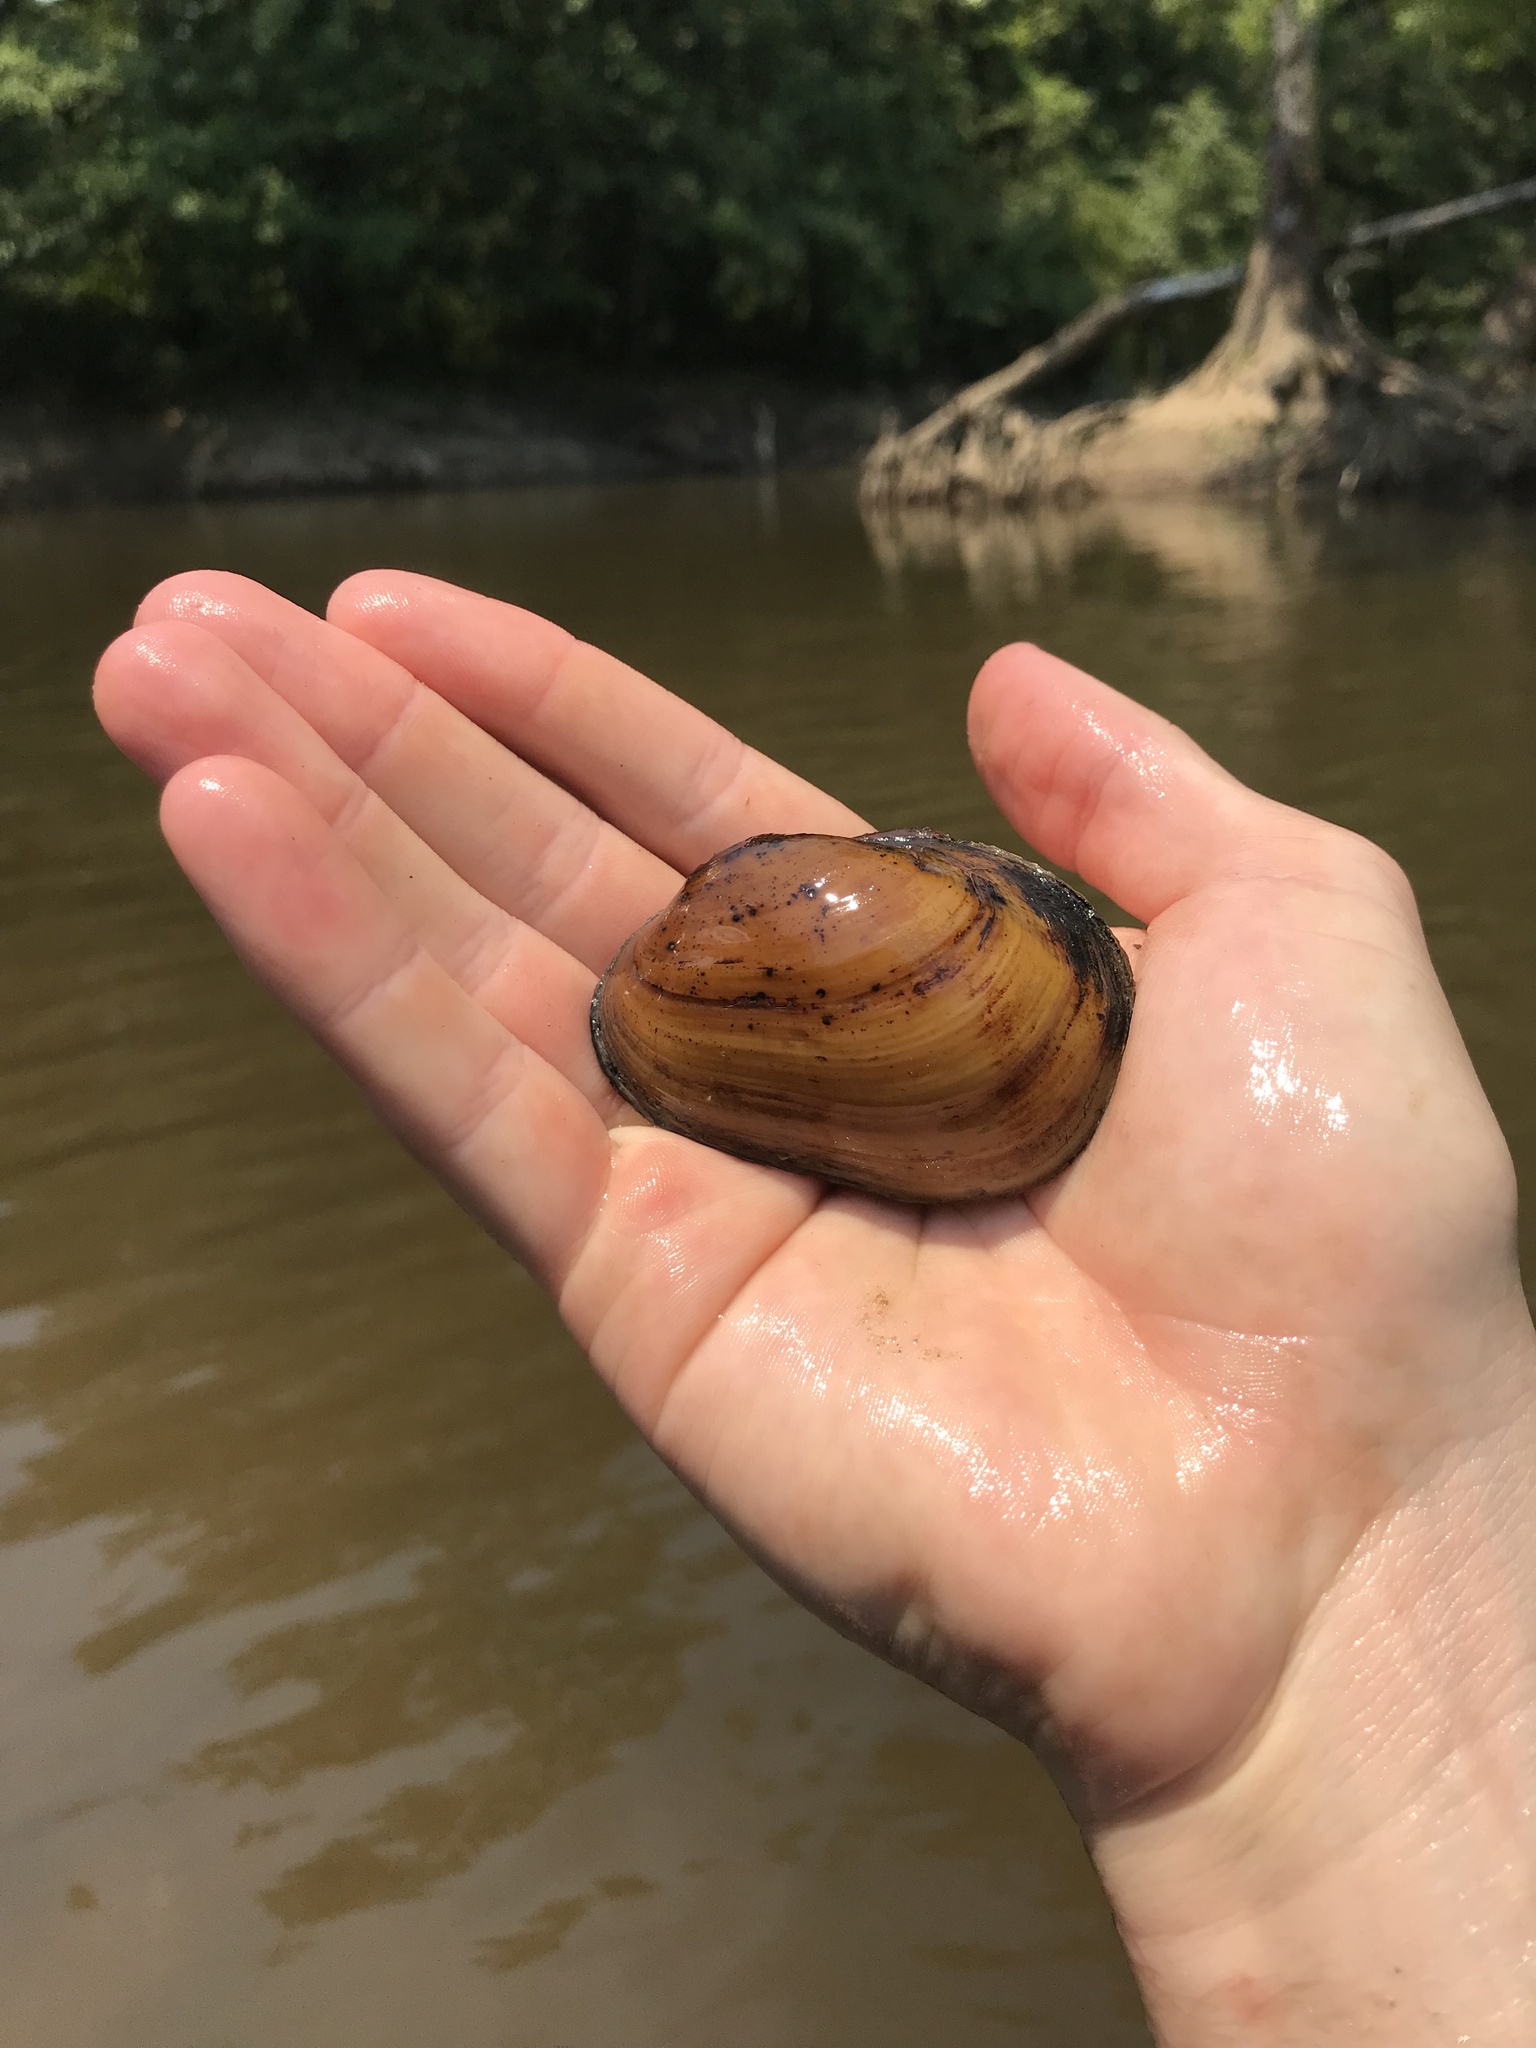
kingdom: Animalia
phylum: Mollusca
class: Bivalvia
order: Unionida
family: Unionidae
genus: Lampsilis
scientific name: Lampsilis straminea
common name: Rough fatmucket
